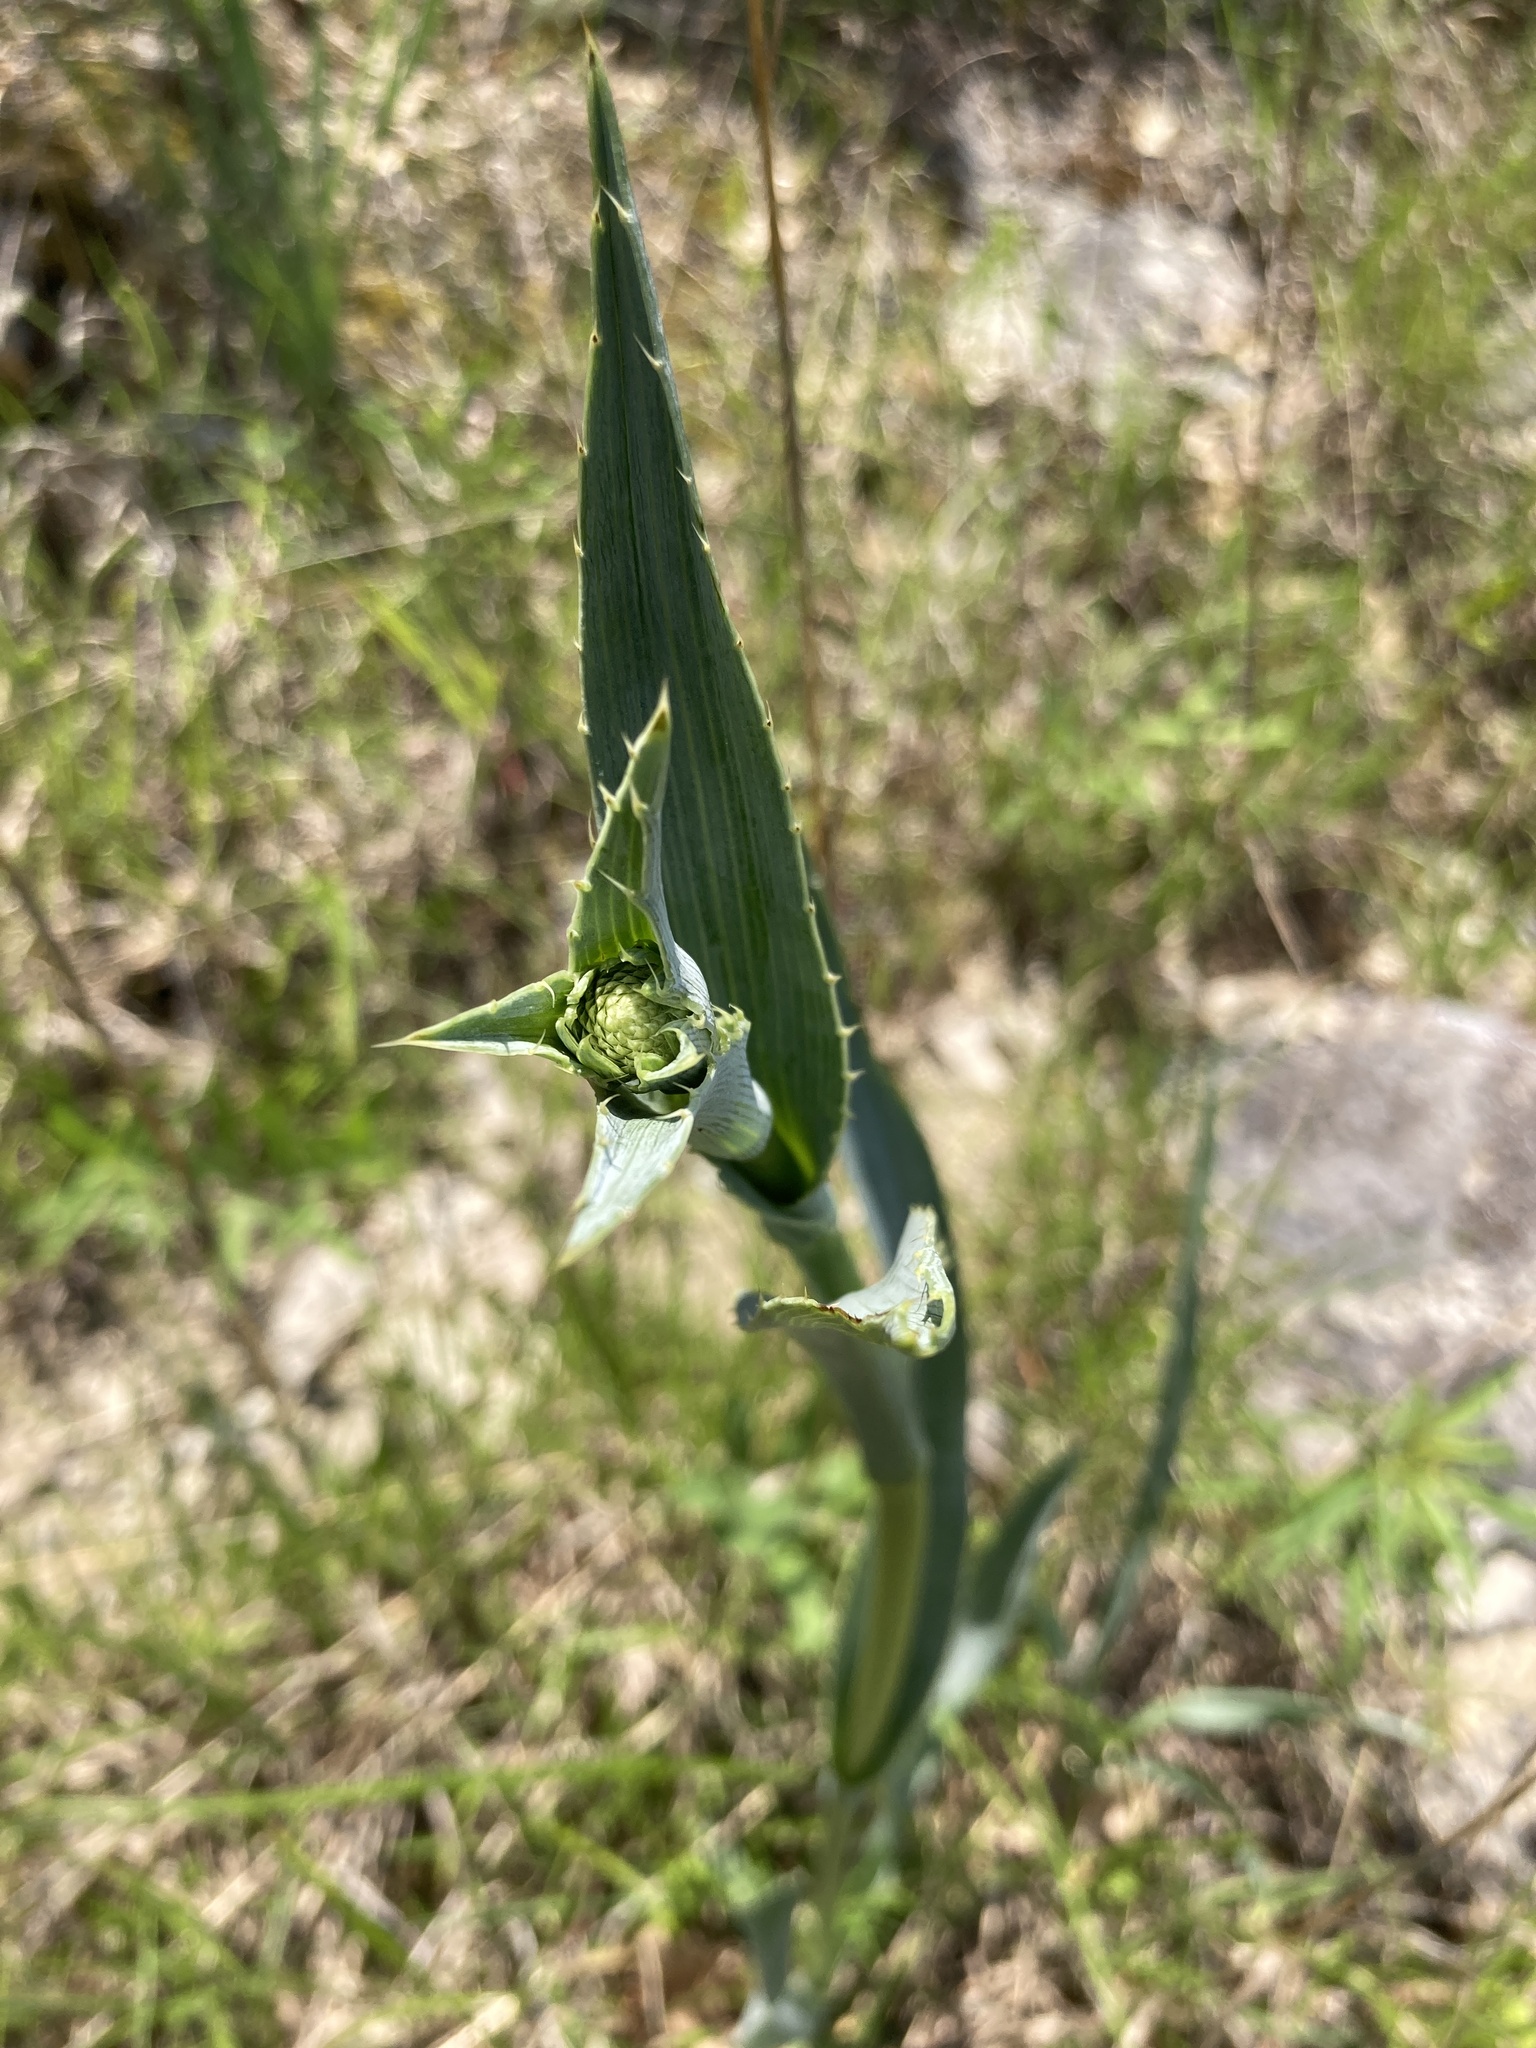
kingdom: Plantae
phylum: Tracheophyta
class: Magnoliopsida
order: Apiales
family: Apiaceae
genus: Eryngium
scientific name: Eryngium yuccifolium
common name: Button eryngo
